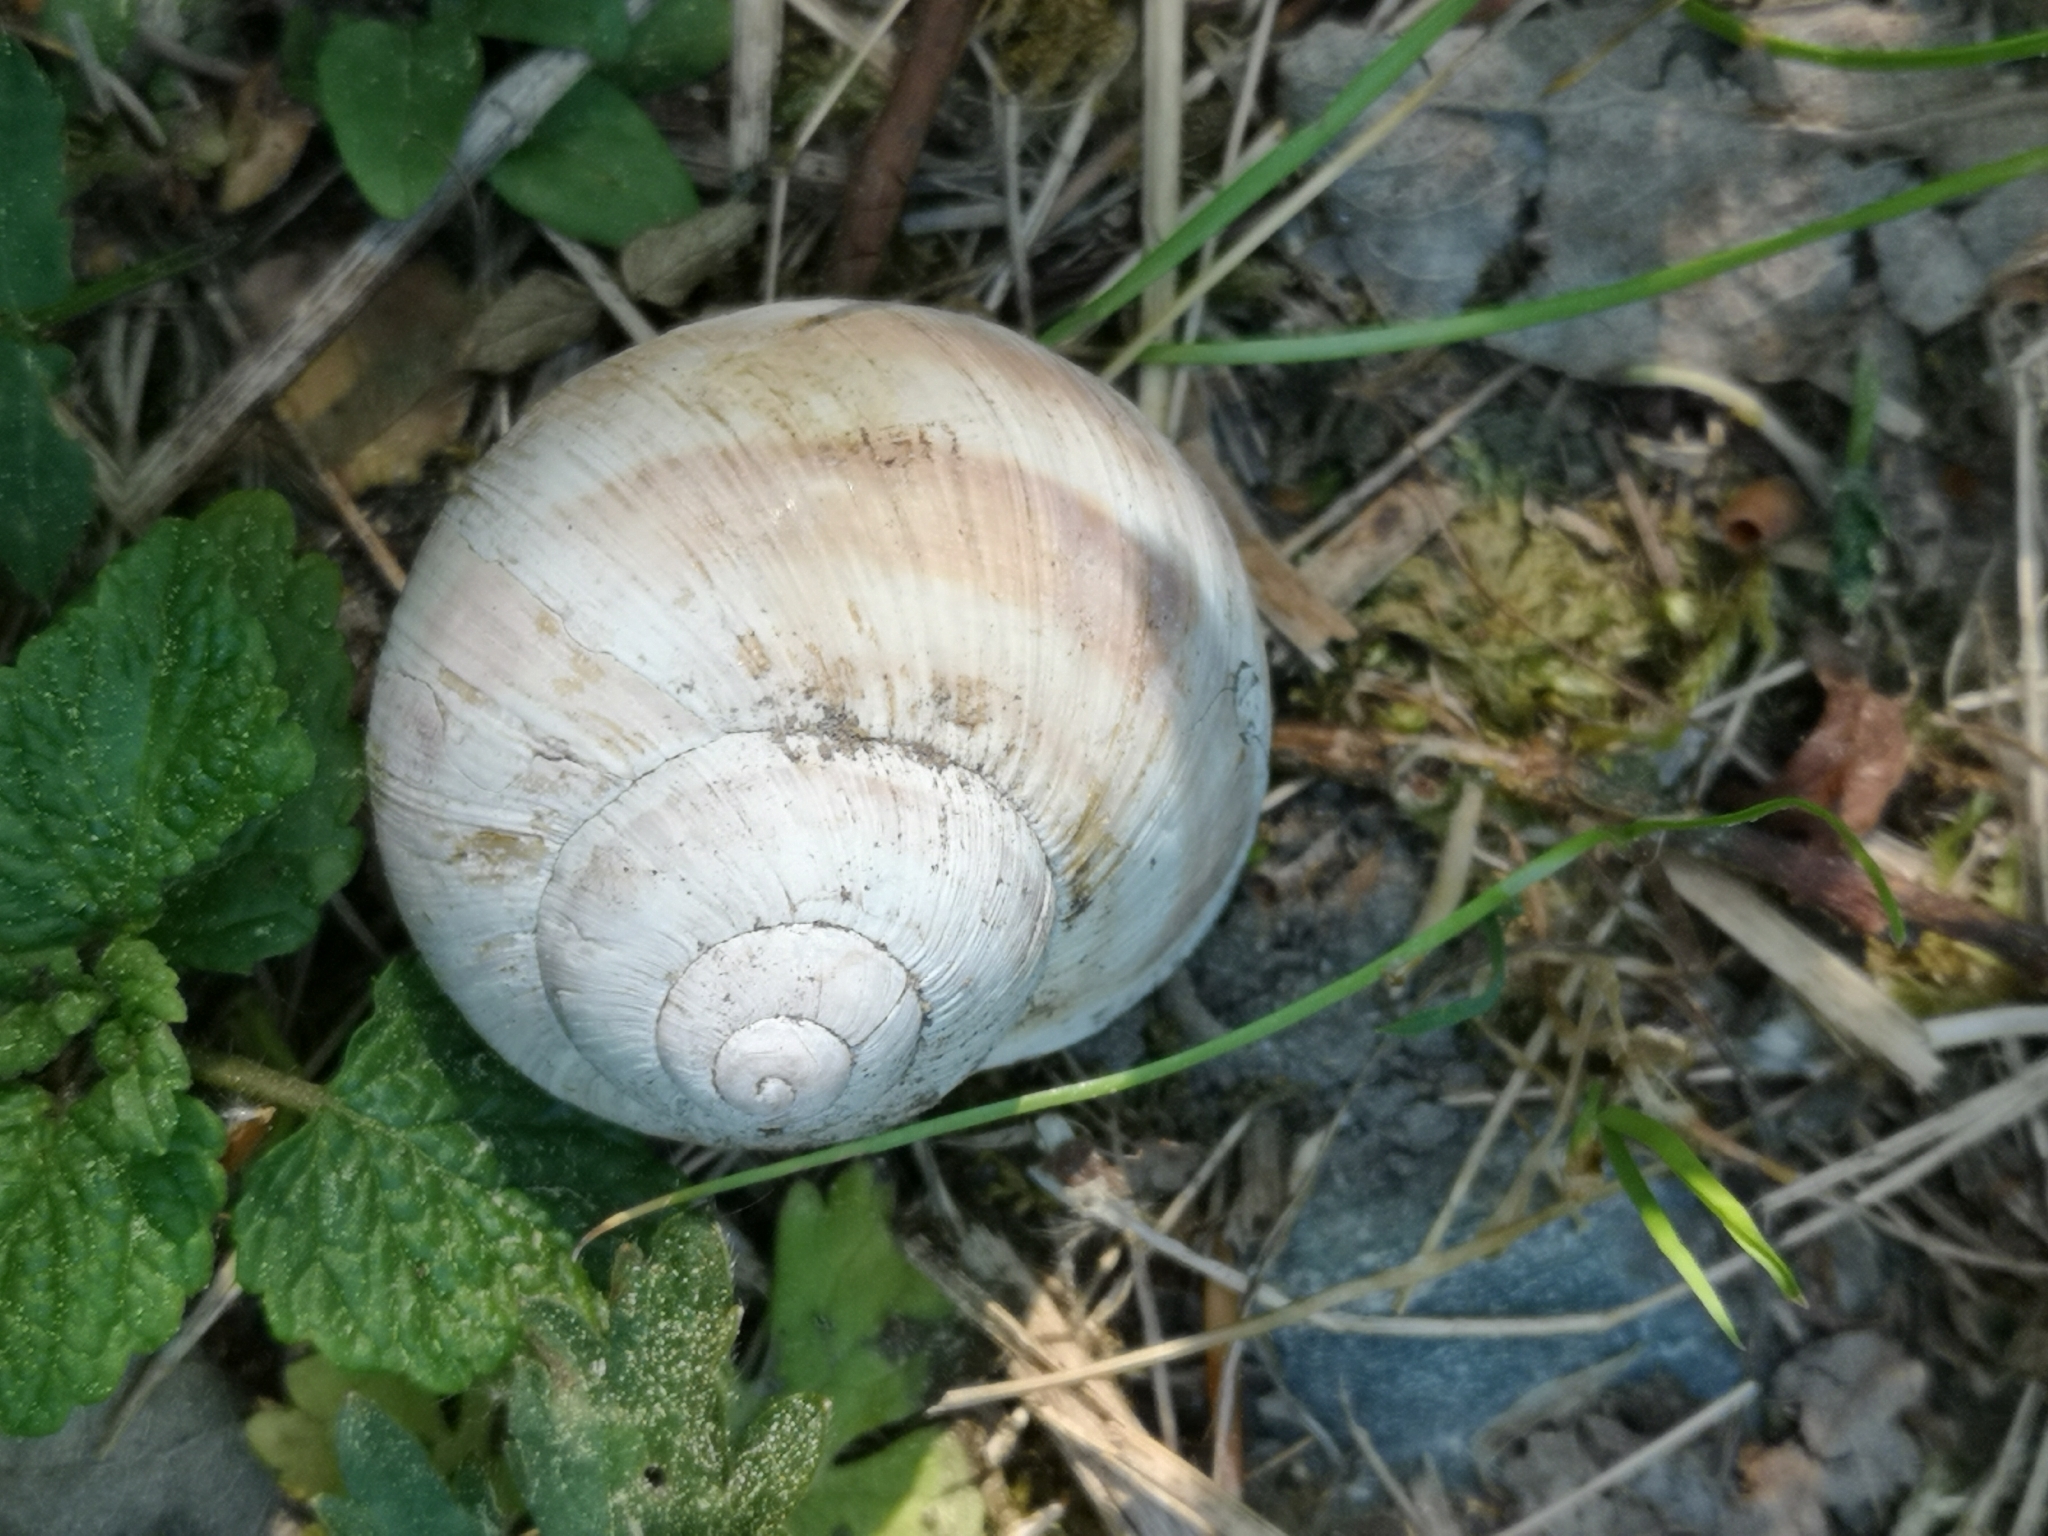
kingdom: Animalia
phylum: Mollusca
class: Gastropoda
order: Stylommatophora
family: Helicidae
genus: Helix
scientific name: Helix pomatia
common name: Roman snail
